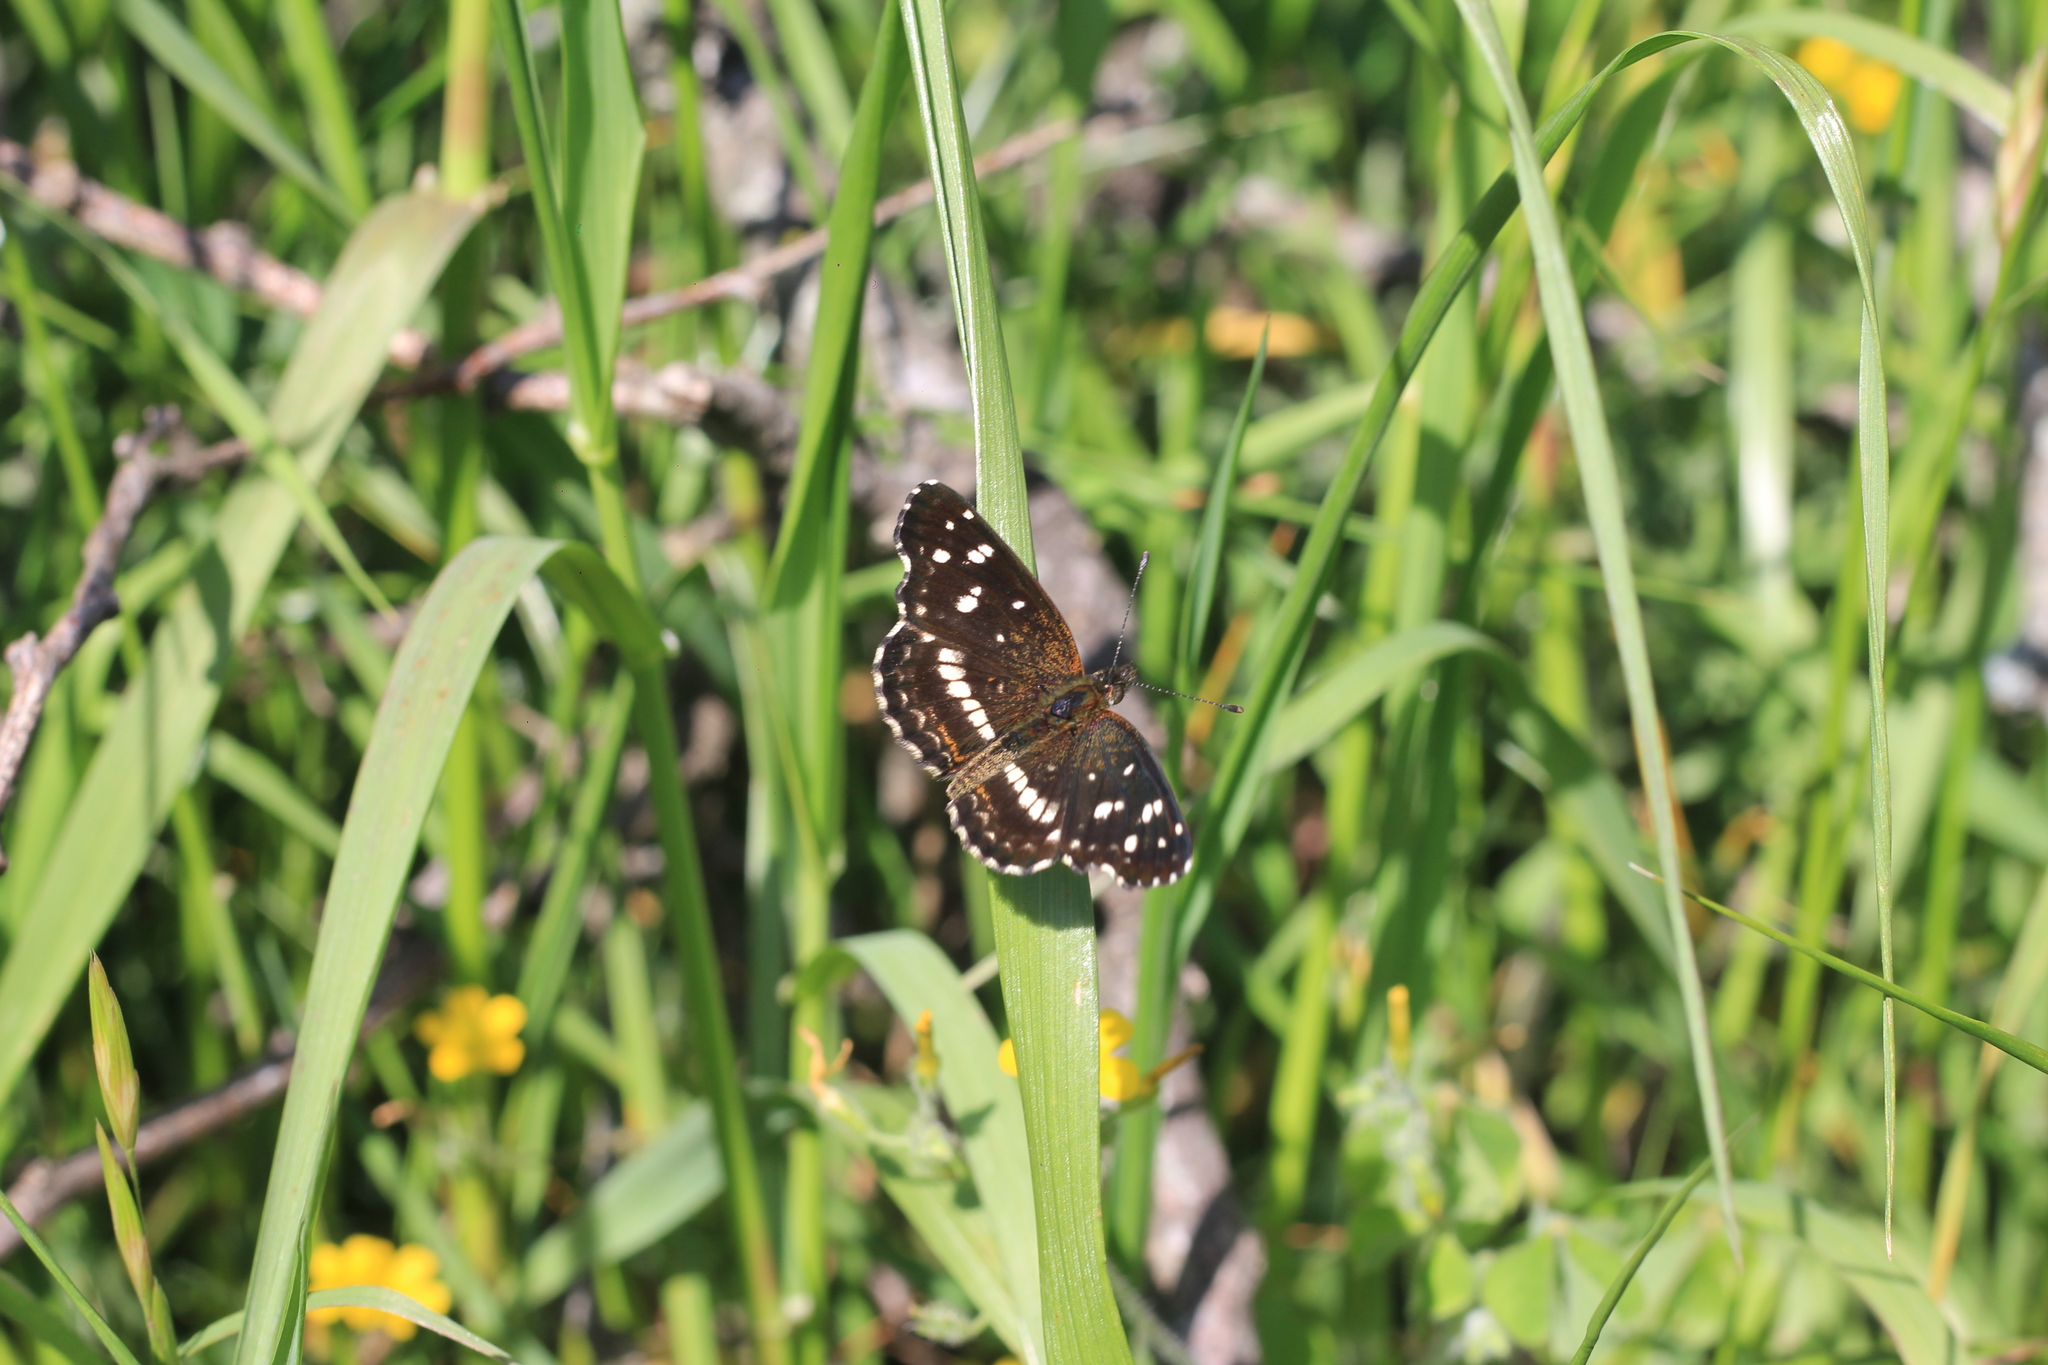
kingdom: Animalia
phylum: Arthropoda
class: Insecta
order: Lepidoptera
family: Nymphalidae
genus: Ortilia
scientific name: Ortilia ithra
